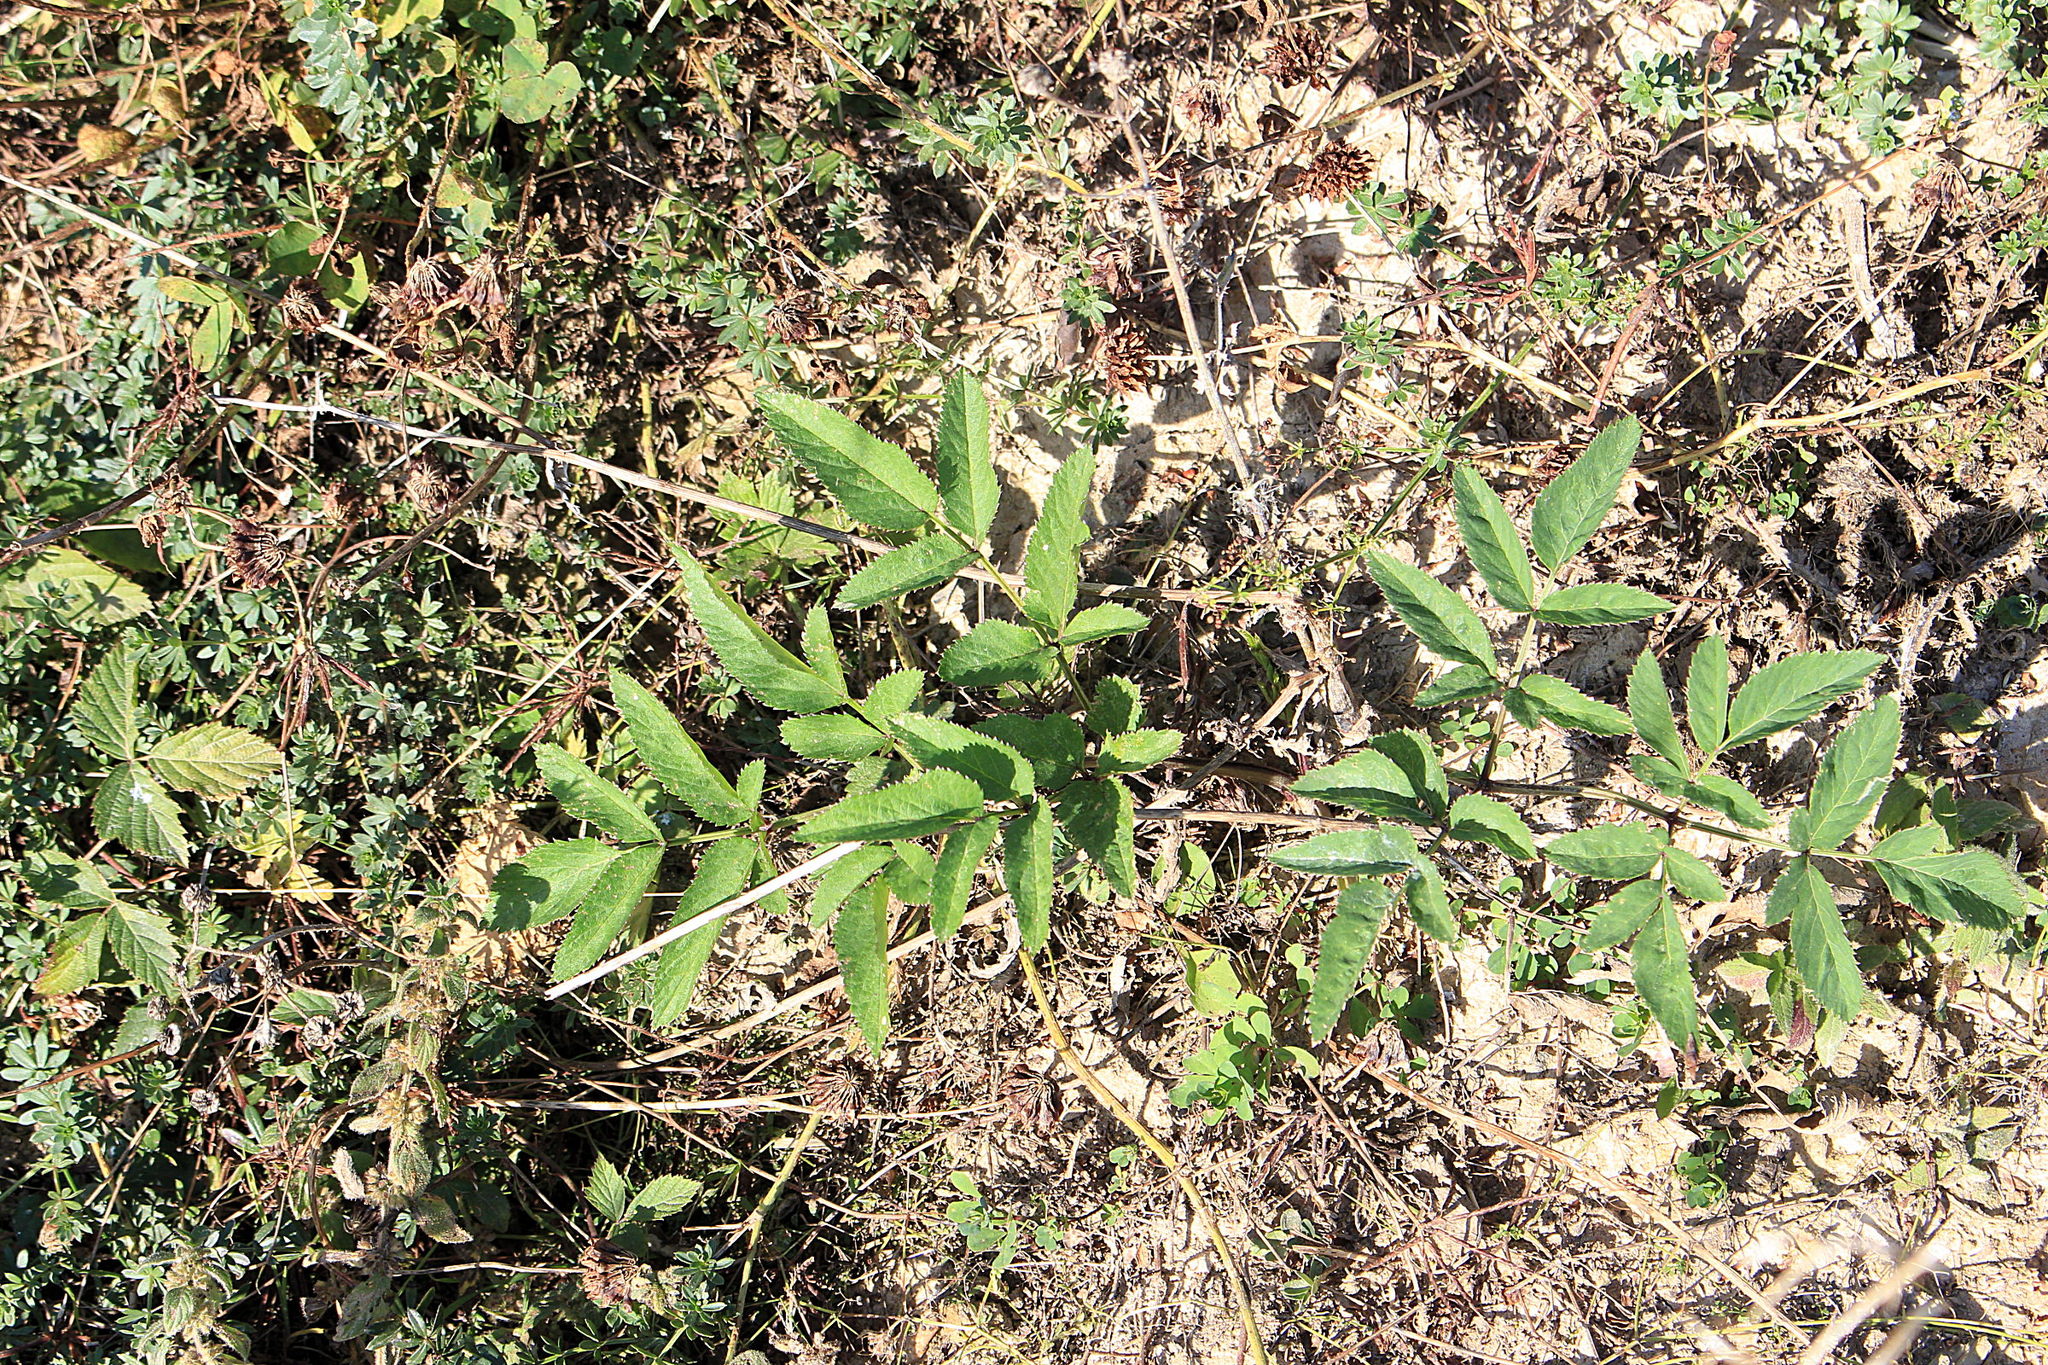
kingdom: Plantae
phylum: Tracheophyta
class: Magnoliopsida
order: Apiales
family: Apiaceae
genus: Angelica
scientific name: Angelica sylvestris
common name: Wild angelica
